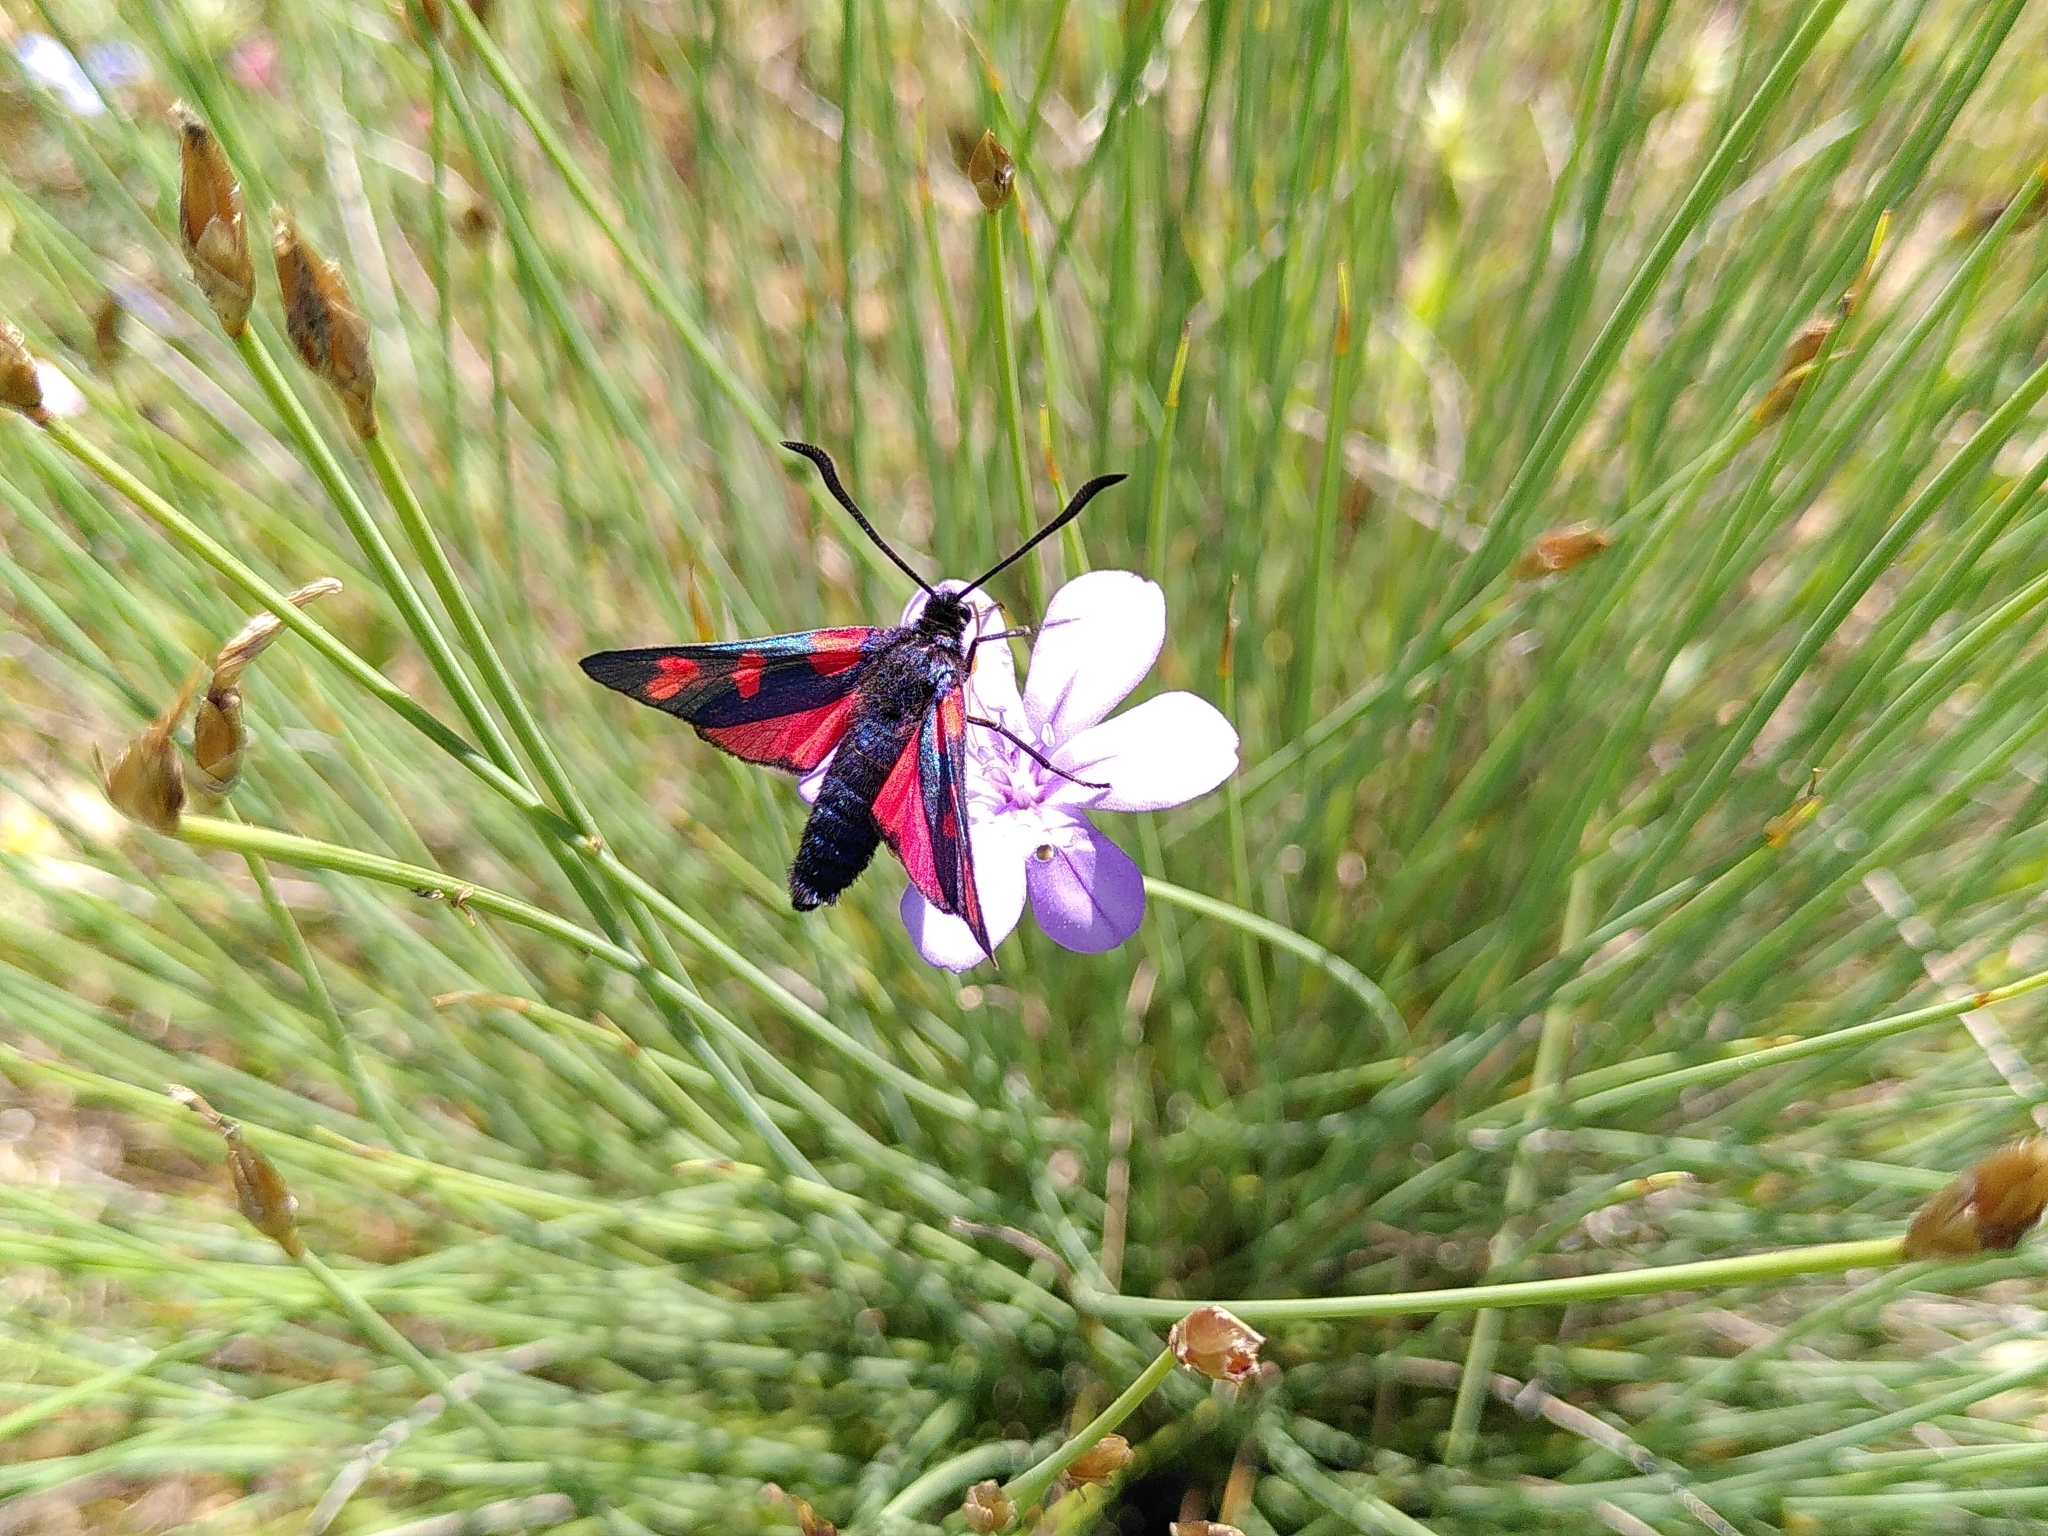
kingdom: Animalia
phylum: Arthropoda
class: Insecta
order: Lepidoptera
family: Zygaenidae
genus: Zygaena
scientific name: Zygaena filipendulae
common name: Six-spot burnet
